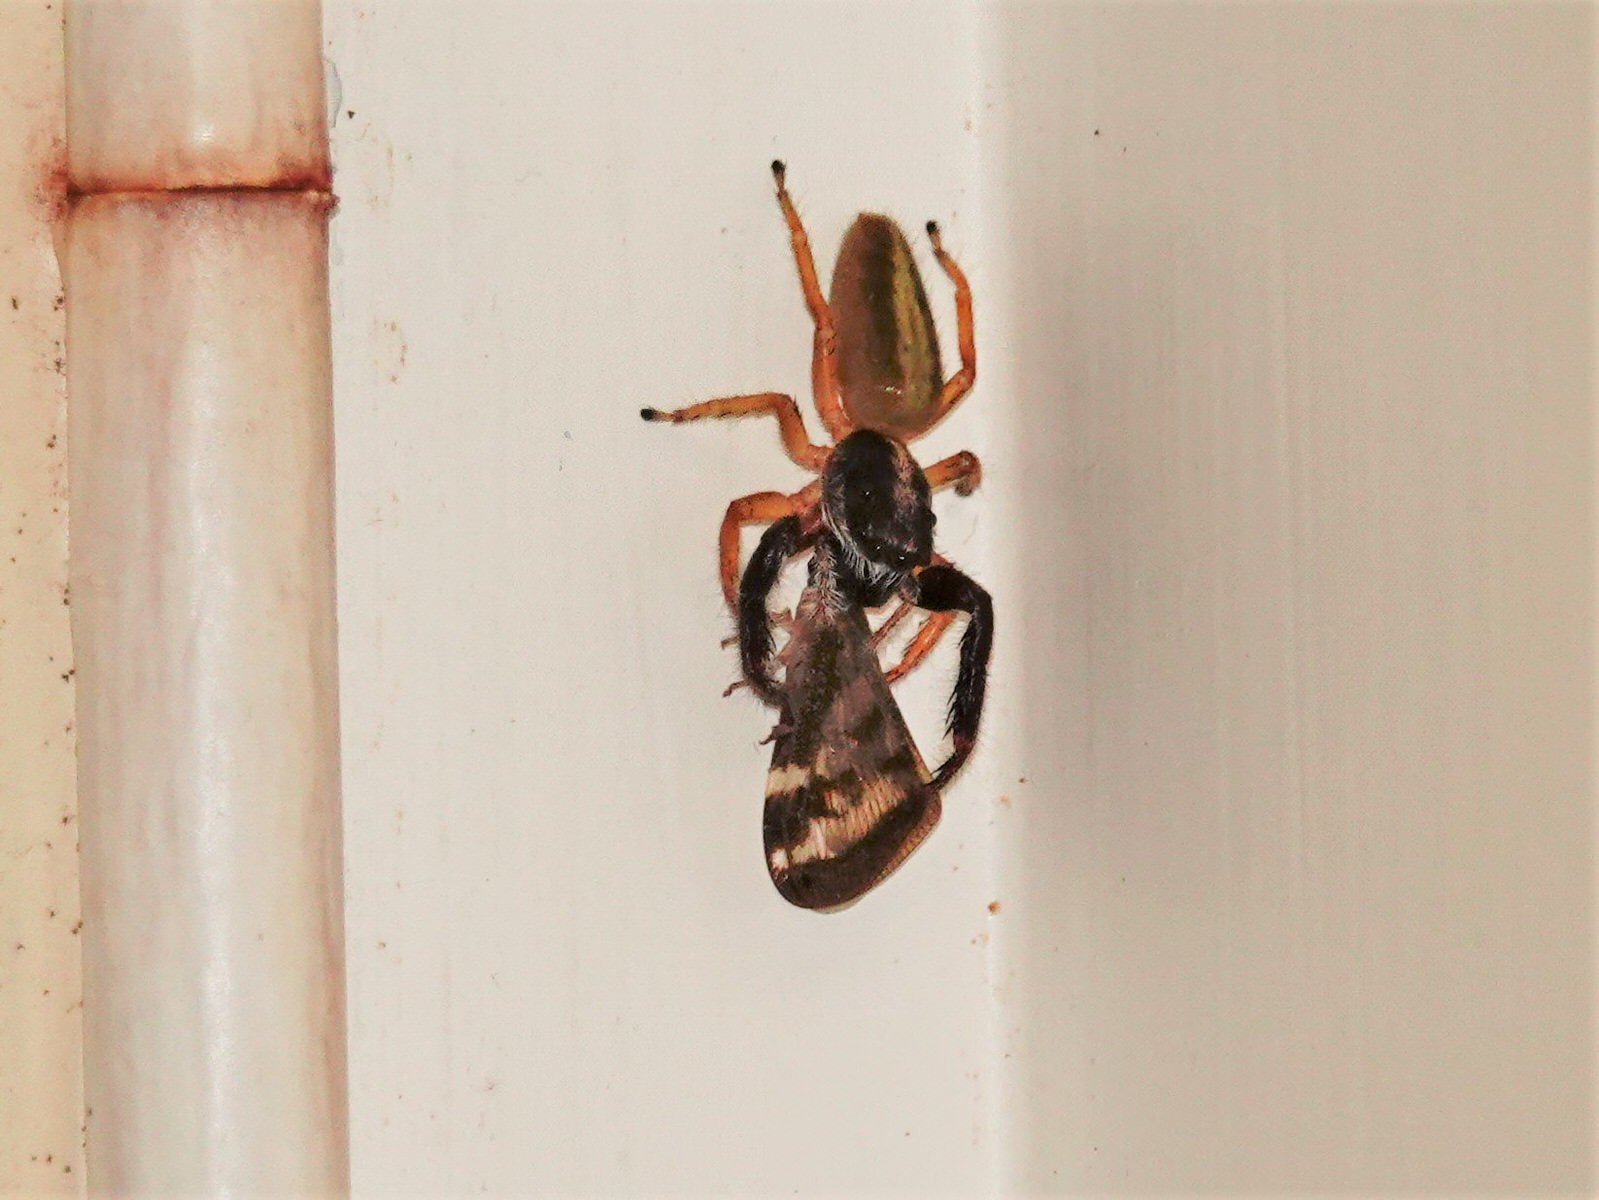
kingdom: Animalia
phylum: Arthropoda
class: Arachnida
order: Araneae
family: Salticidae
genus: Trite
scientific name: Trite planiceps
